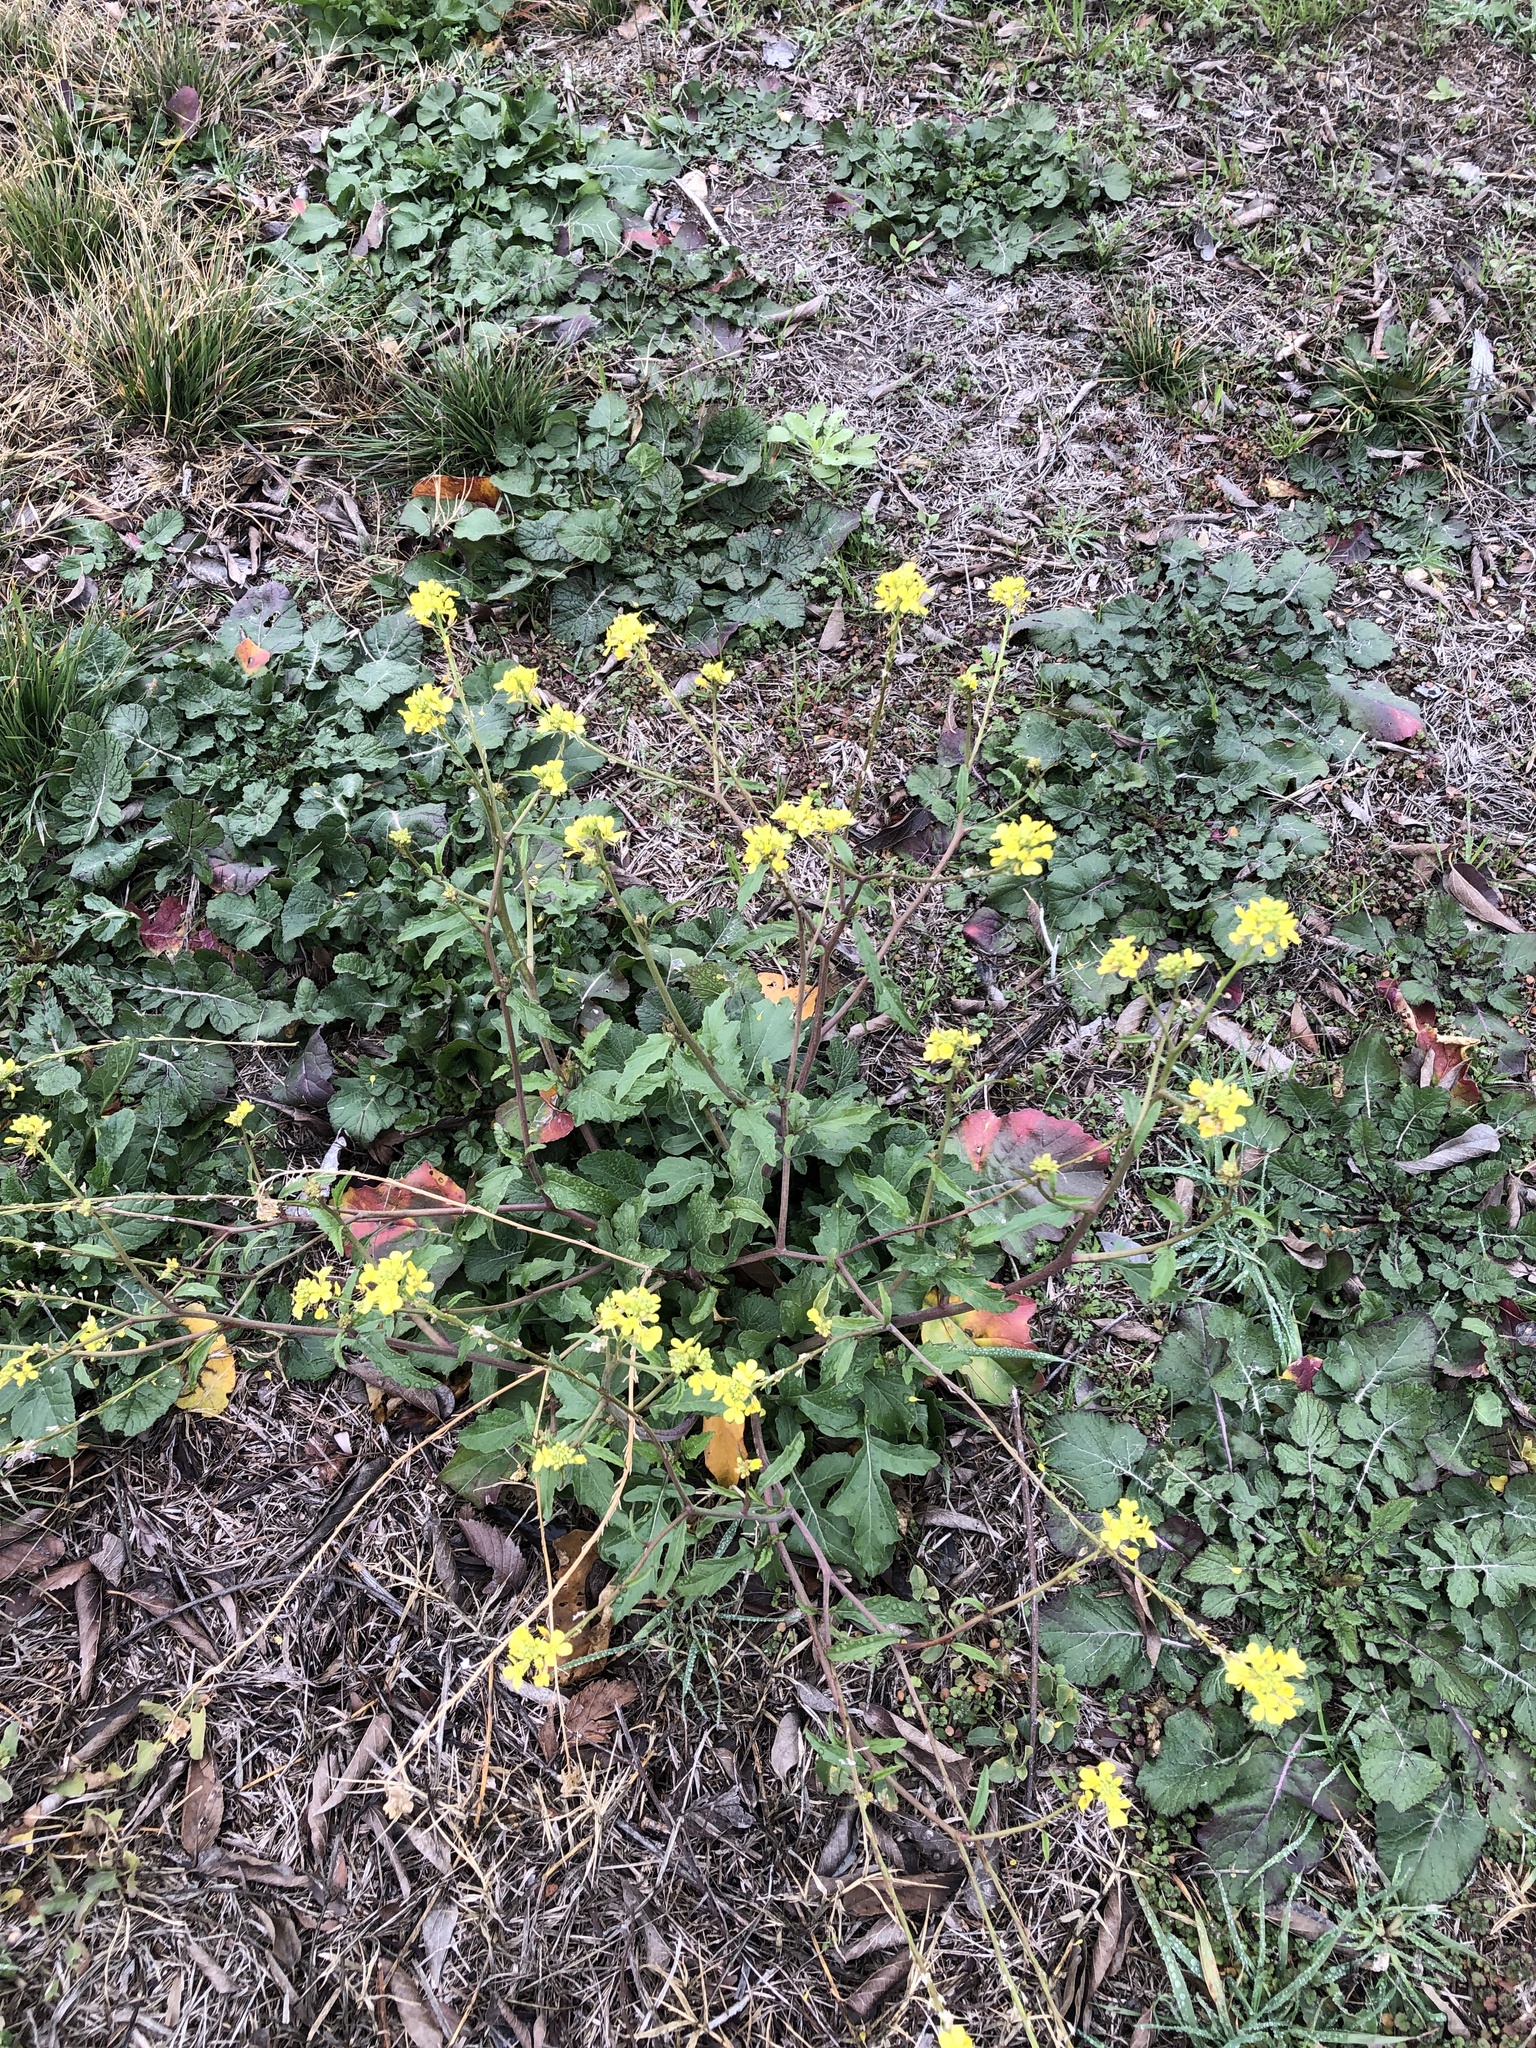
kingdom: Plantae
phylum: Tracheophyta
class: Magnoliopsida
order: Brassicales
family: Brassicaceae
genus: Rapistrum
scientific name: Rapistrum rugosum
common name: Annual bastardcabbage
